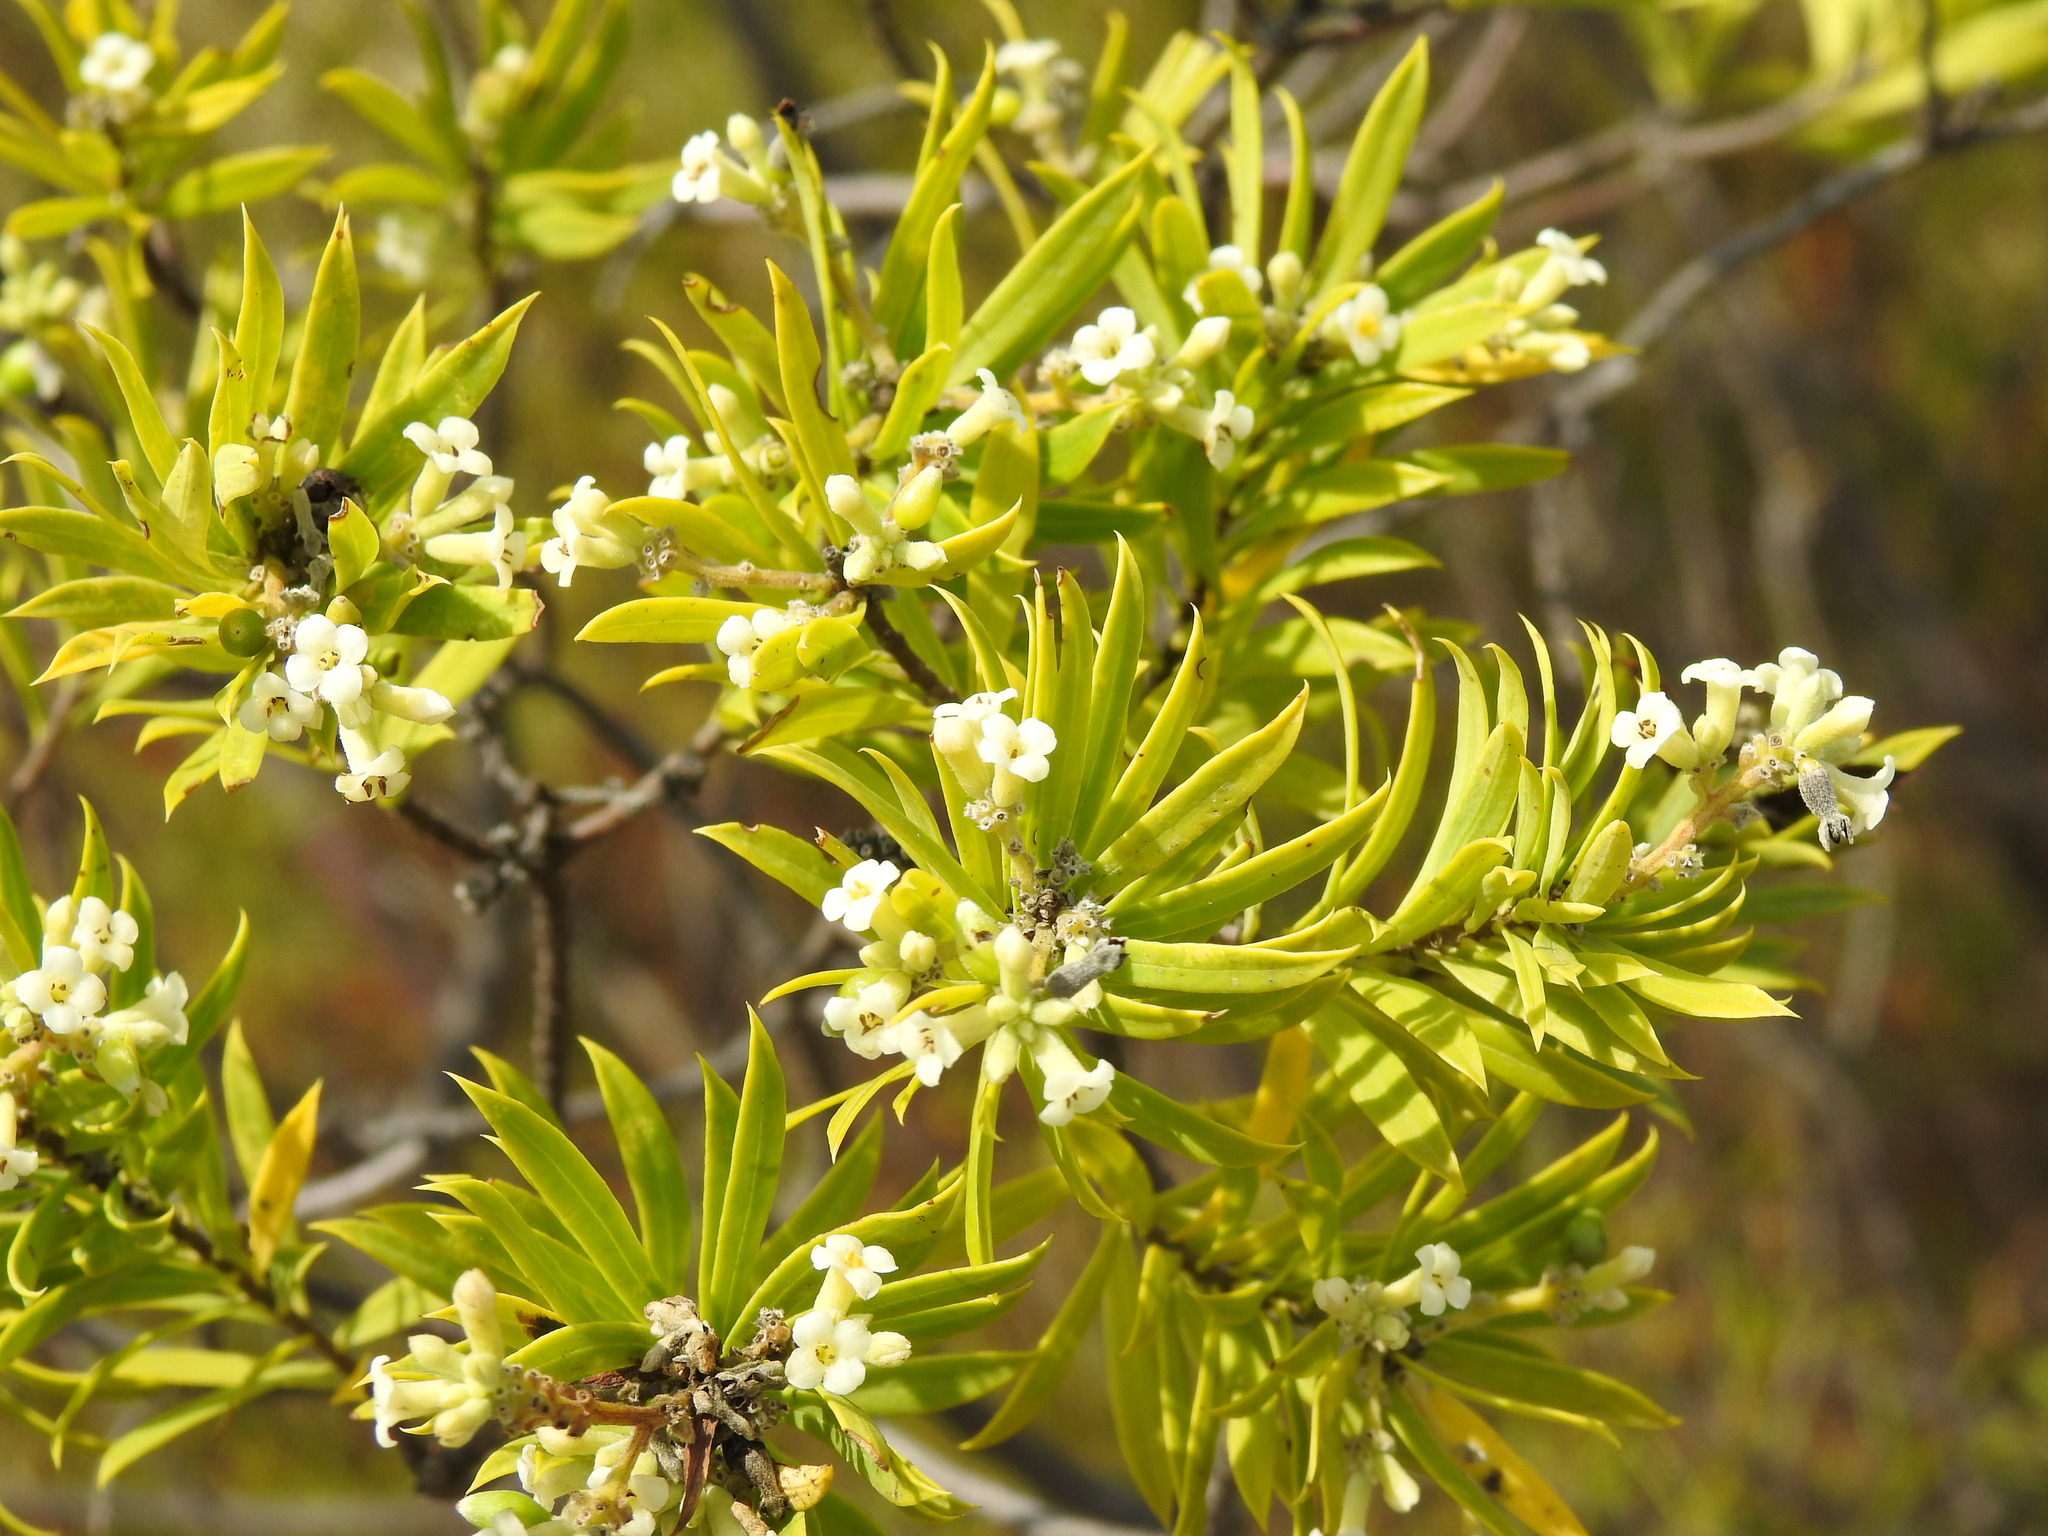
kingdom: Plantae
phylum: Tracheophyta
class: Magnoliopsida
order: Malvales
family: Thymelaeaceae
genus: Daphne
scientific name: Daphne gnidium
